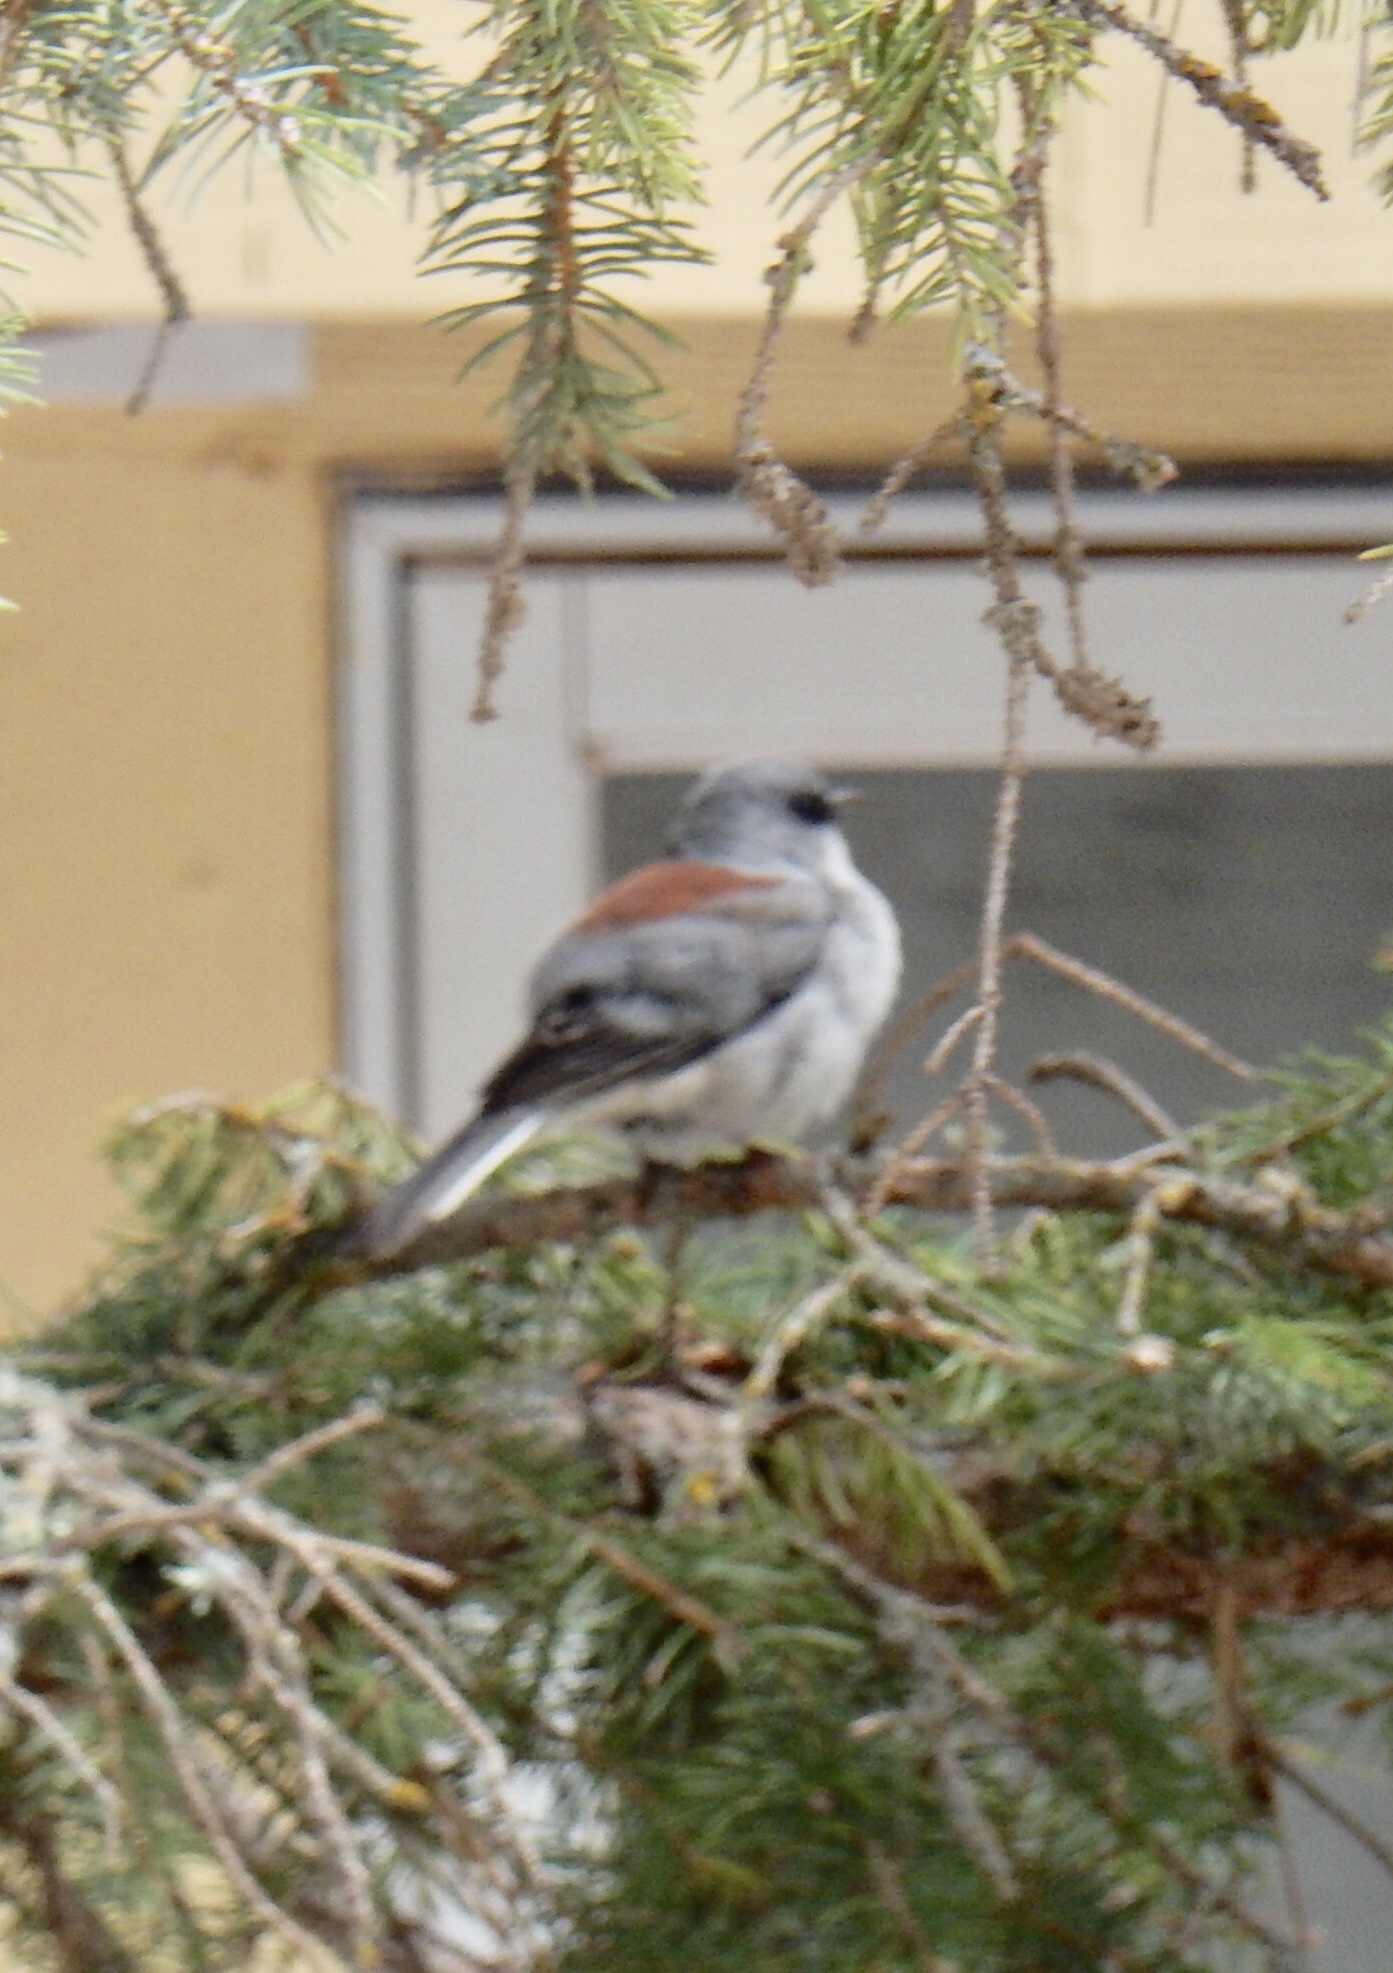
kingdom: Animalia
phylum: Chordata
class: Aves
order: Passeriformes
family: Passerellidae
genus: Junco
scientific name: Junco hyemalis
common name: Dark-eyed junco
